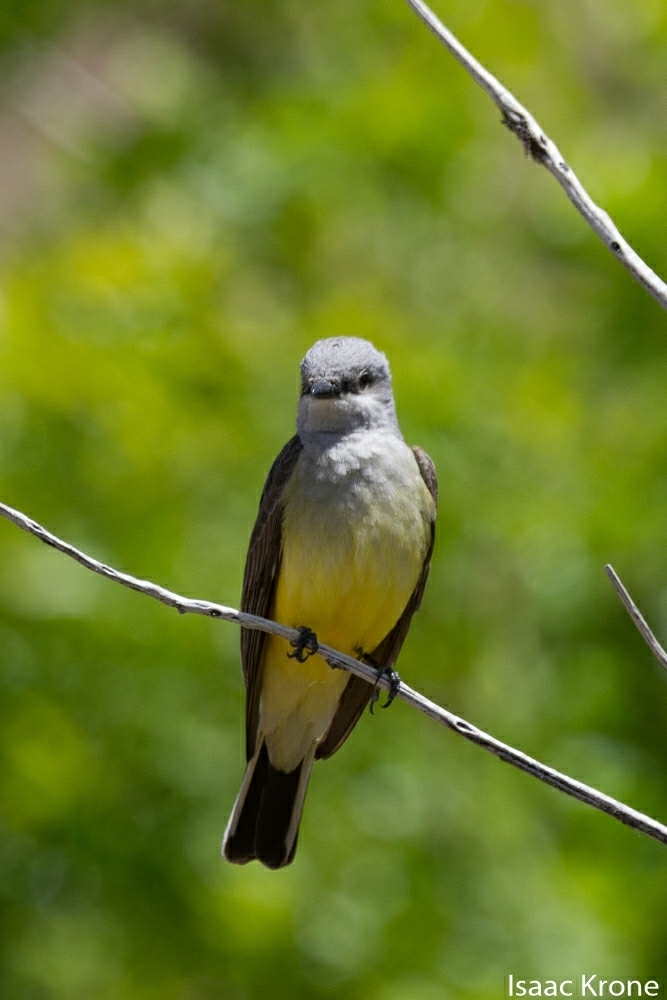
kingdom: Animalia
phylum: Chordata
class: Aves
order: Passeriformes
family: Tyrannidae
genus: Tyrannus
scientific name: Tyrannus verticalis
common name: Western kingbird
